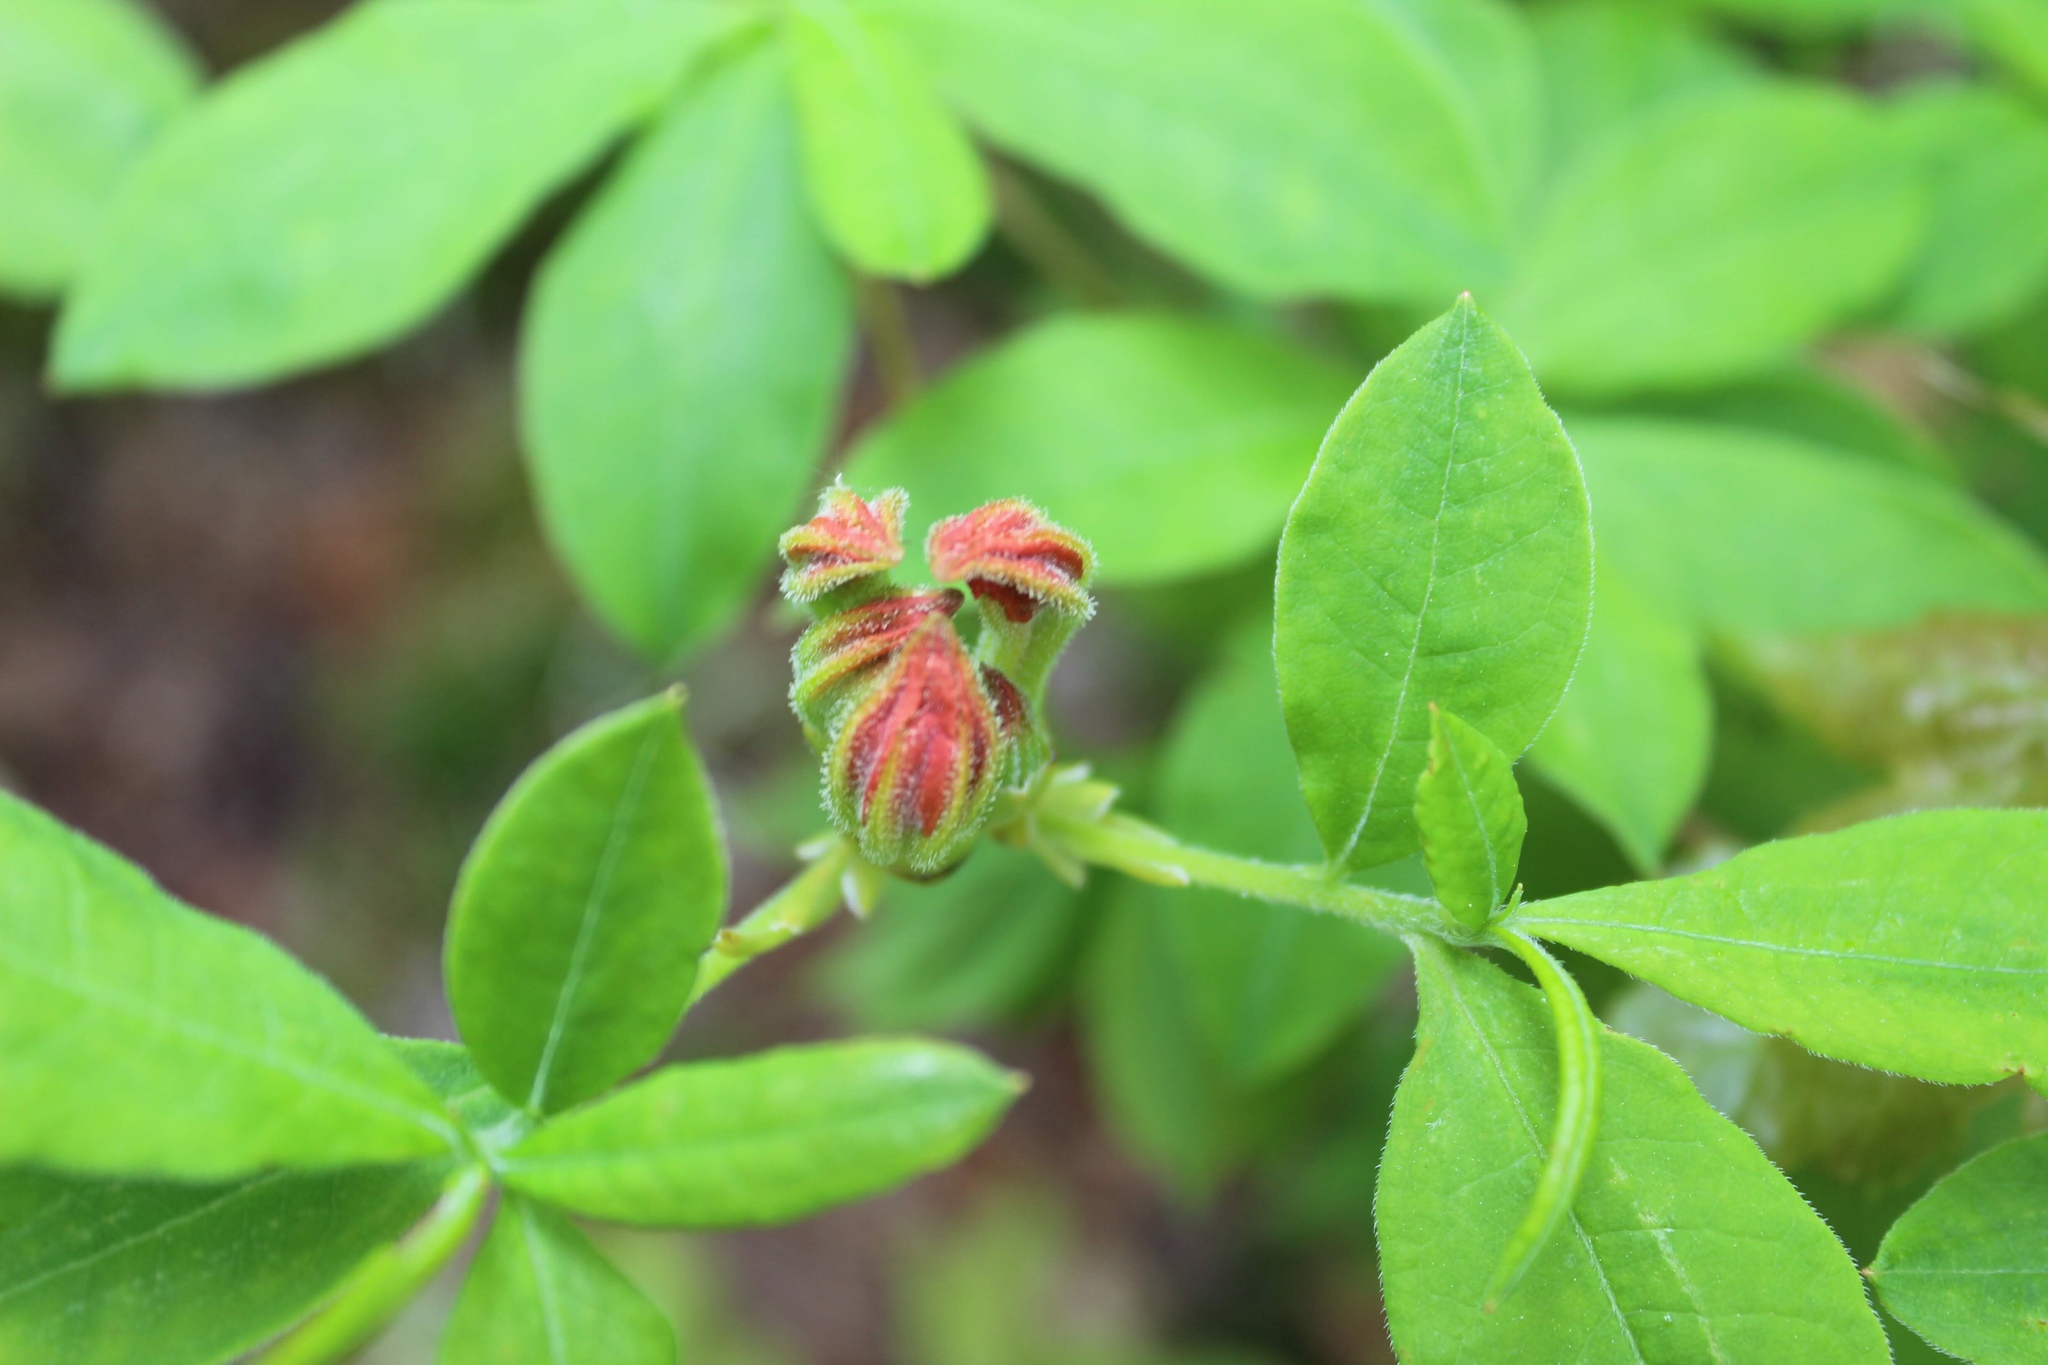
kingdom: Plantae
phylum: Tracheophyta
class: Magnoliopsida
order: Ericales
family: Ericaceae
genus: Rhododendron
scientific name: Rhododendron calendulaceum
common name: Flame azalea
